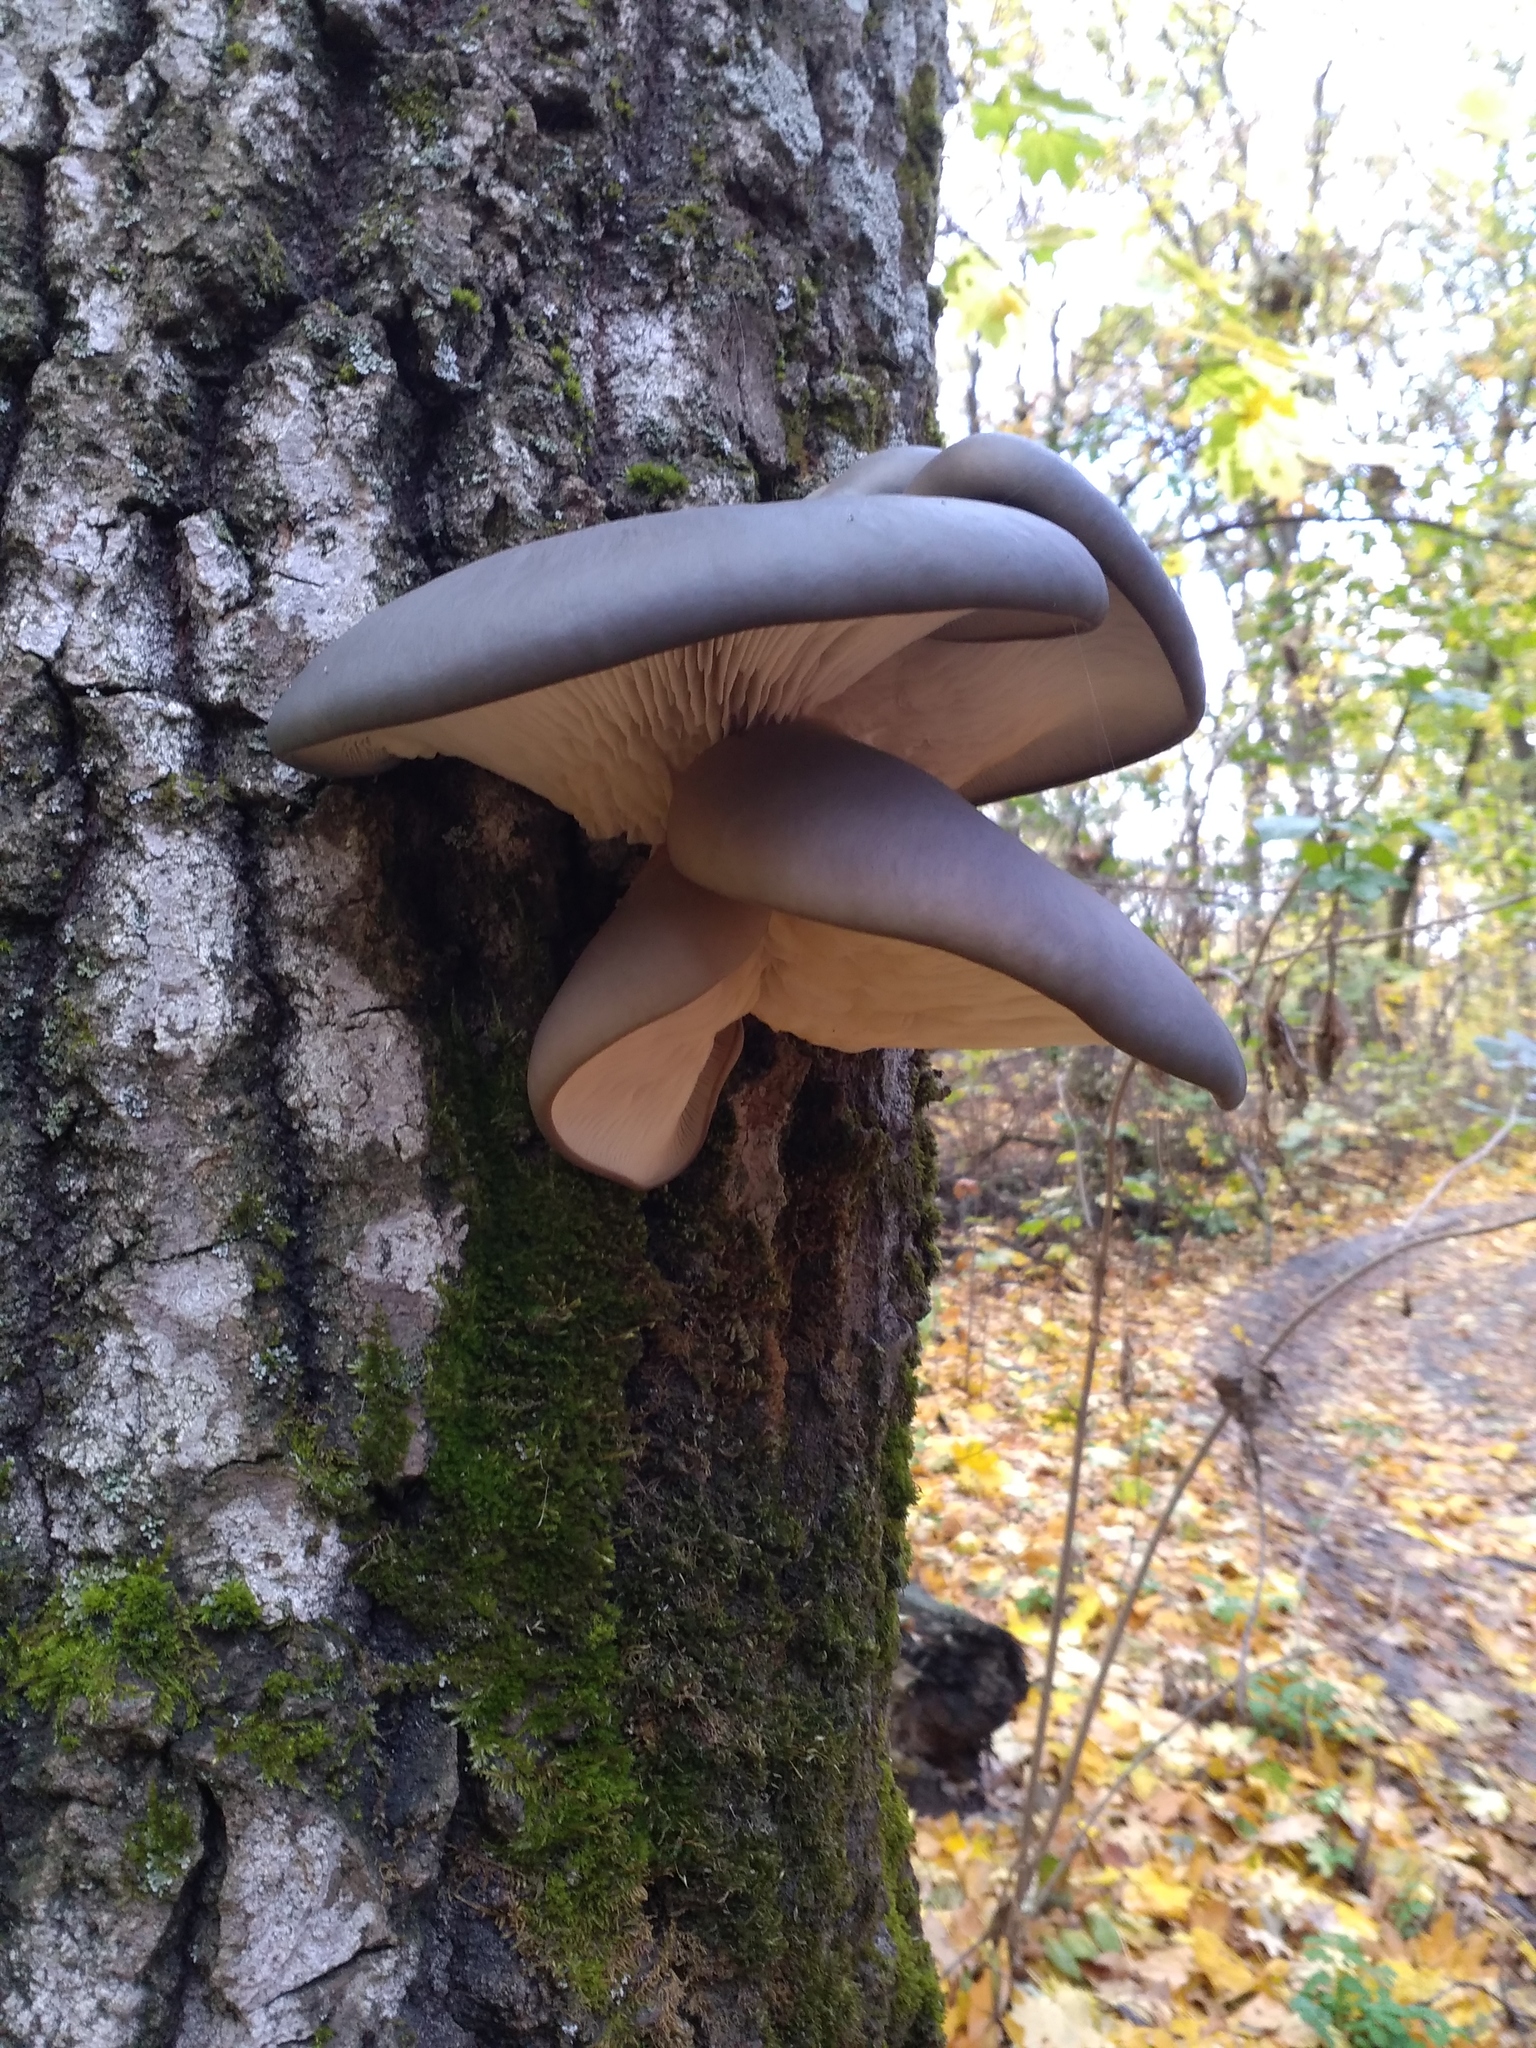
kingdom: Fungi
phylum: Basidiomycota
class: Agaricomycetes
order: Agaricales
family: Pleurotaceae
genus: Pleurotus
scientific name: Pleurotus ostreatus
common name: Oyster mushroom
